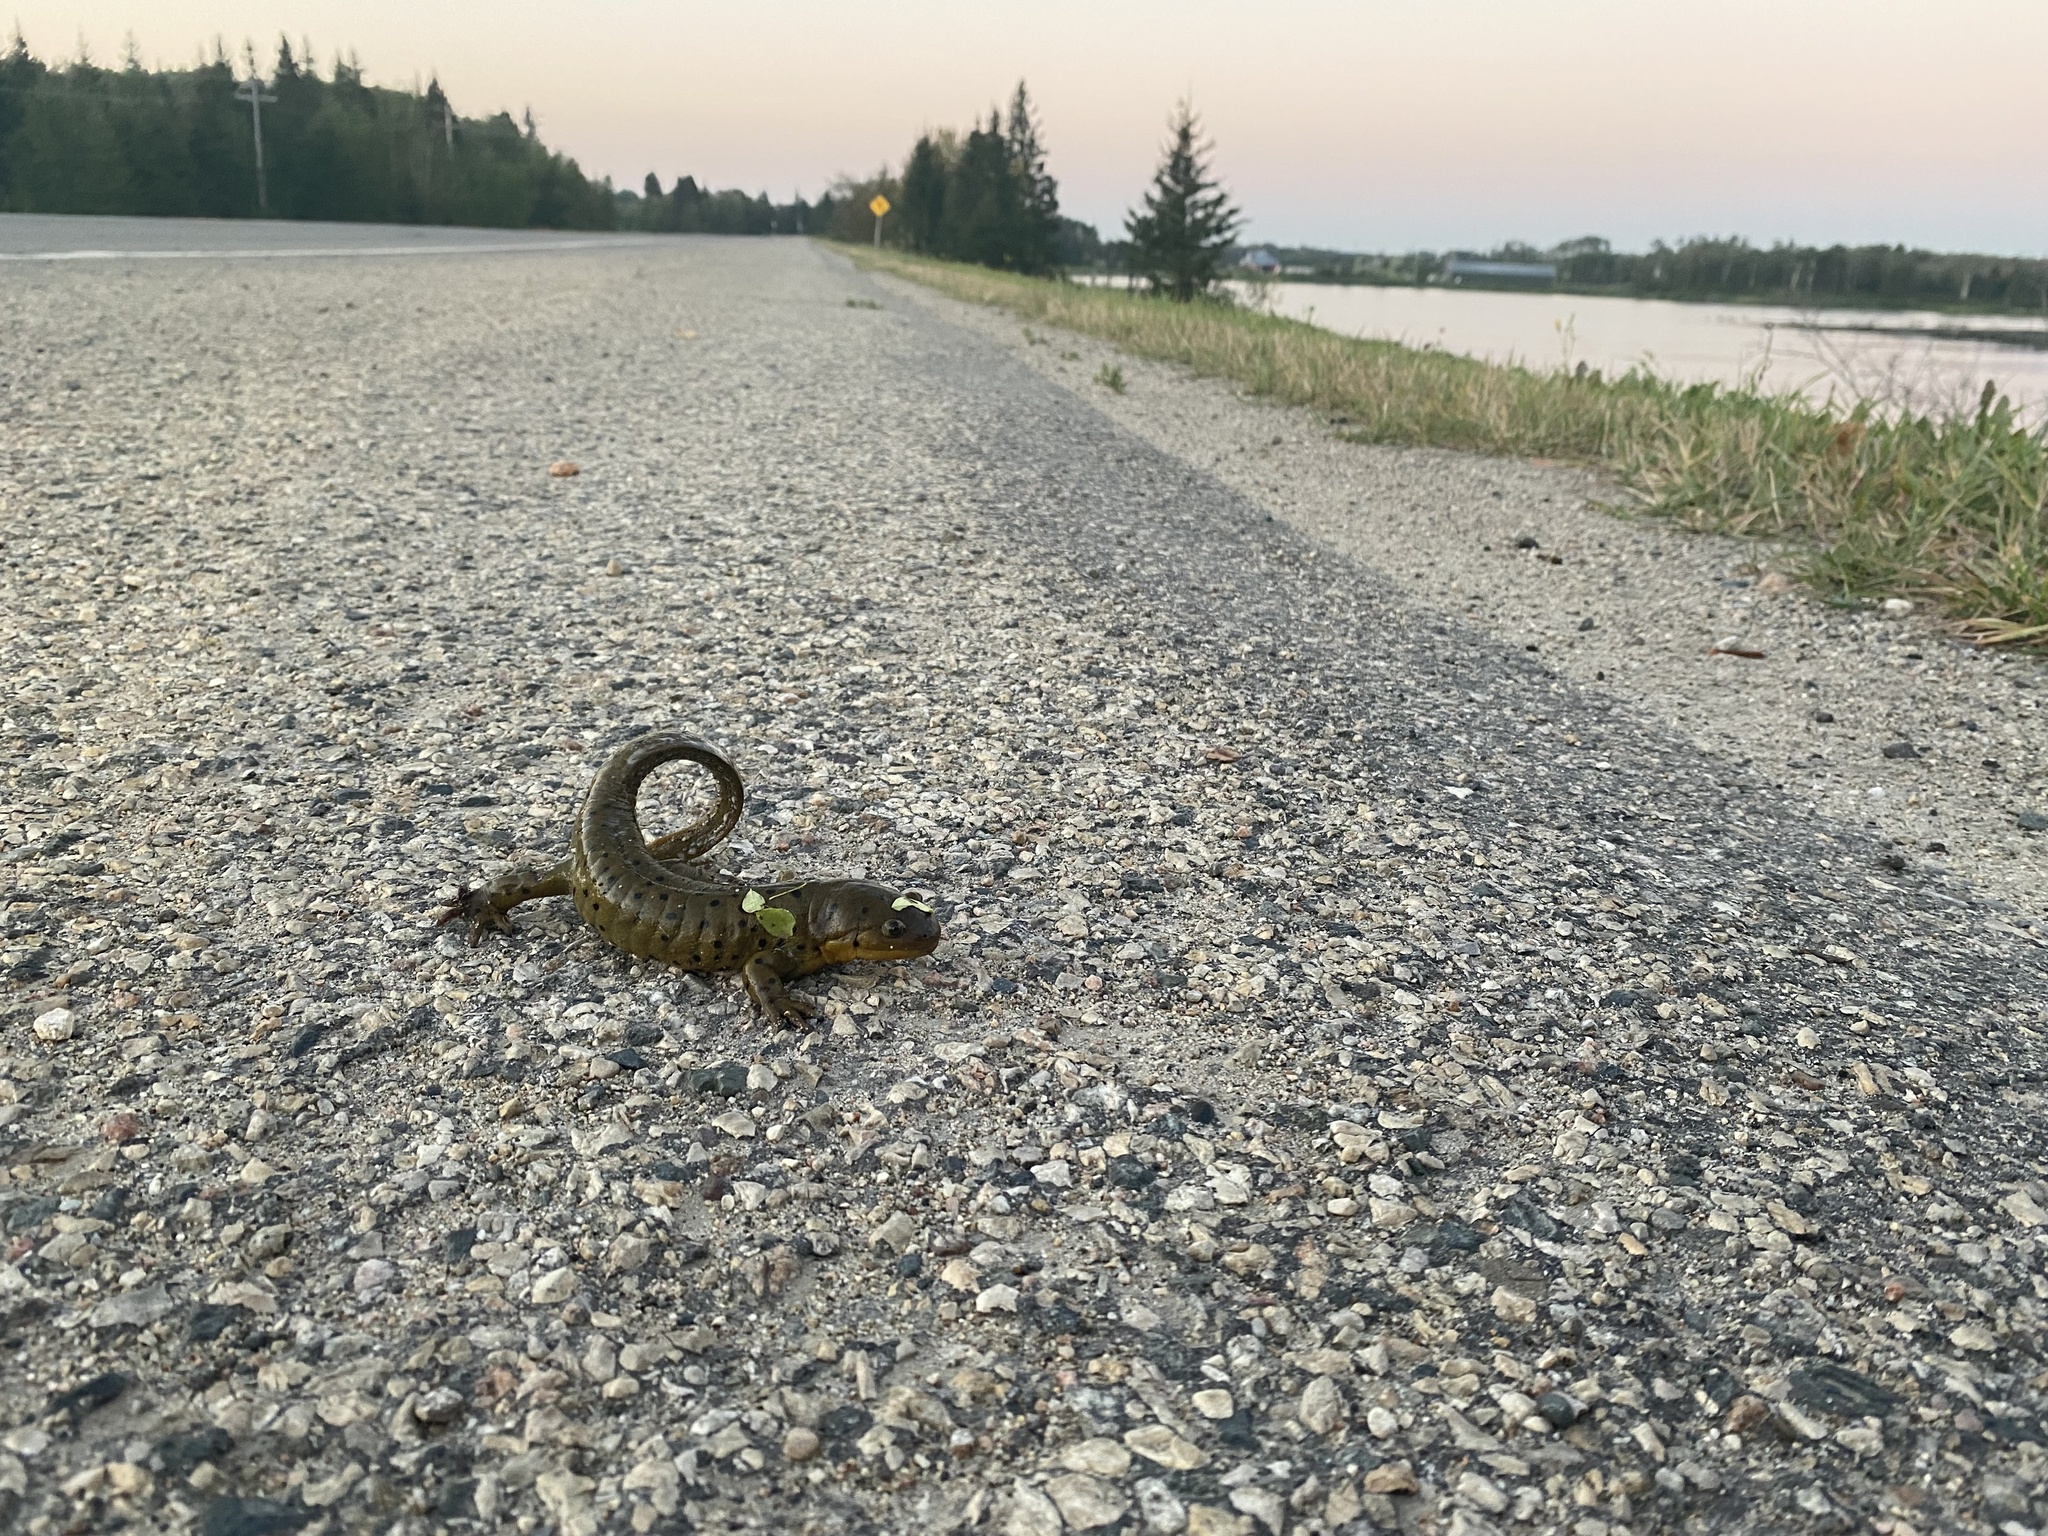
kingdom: Animalia
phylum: Chordata
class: Amphibia
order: Caudata
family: Ambystomatidae
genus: Ambystoma
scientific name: Ambystoma mavortium
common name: Western tiger salamander
